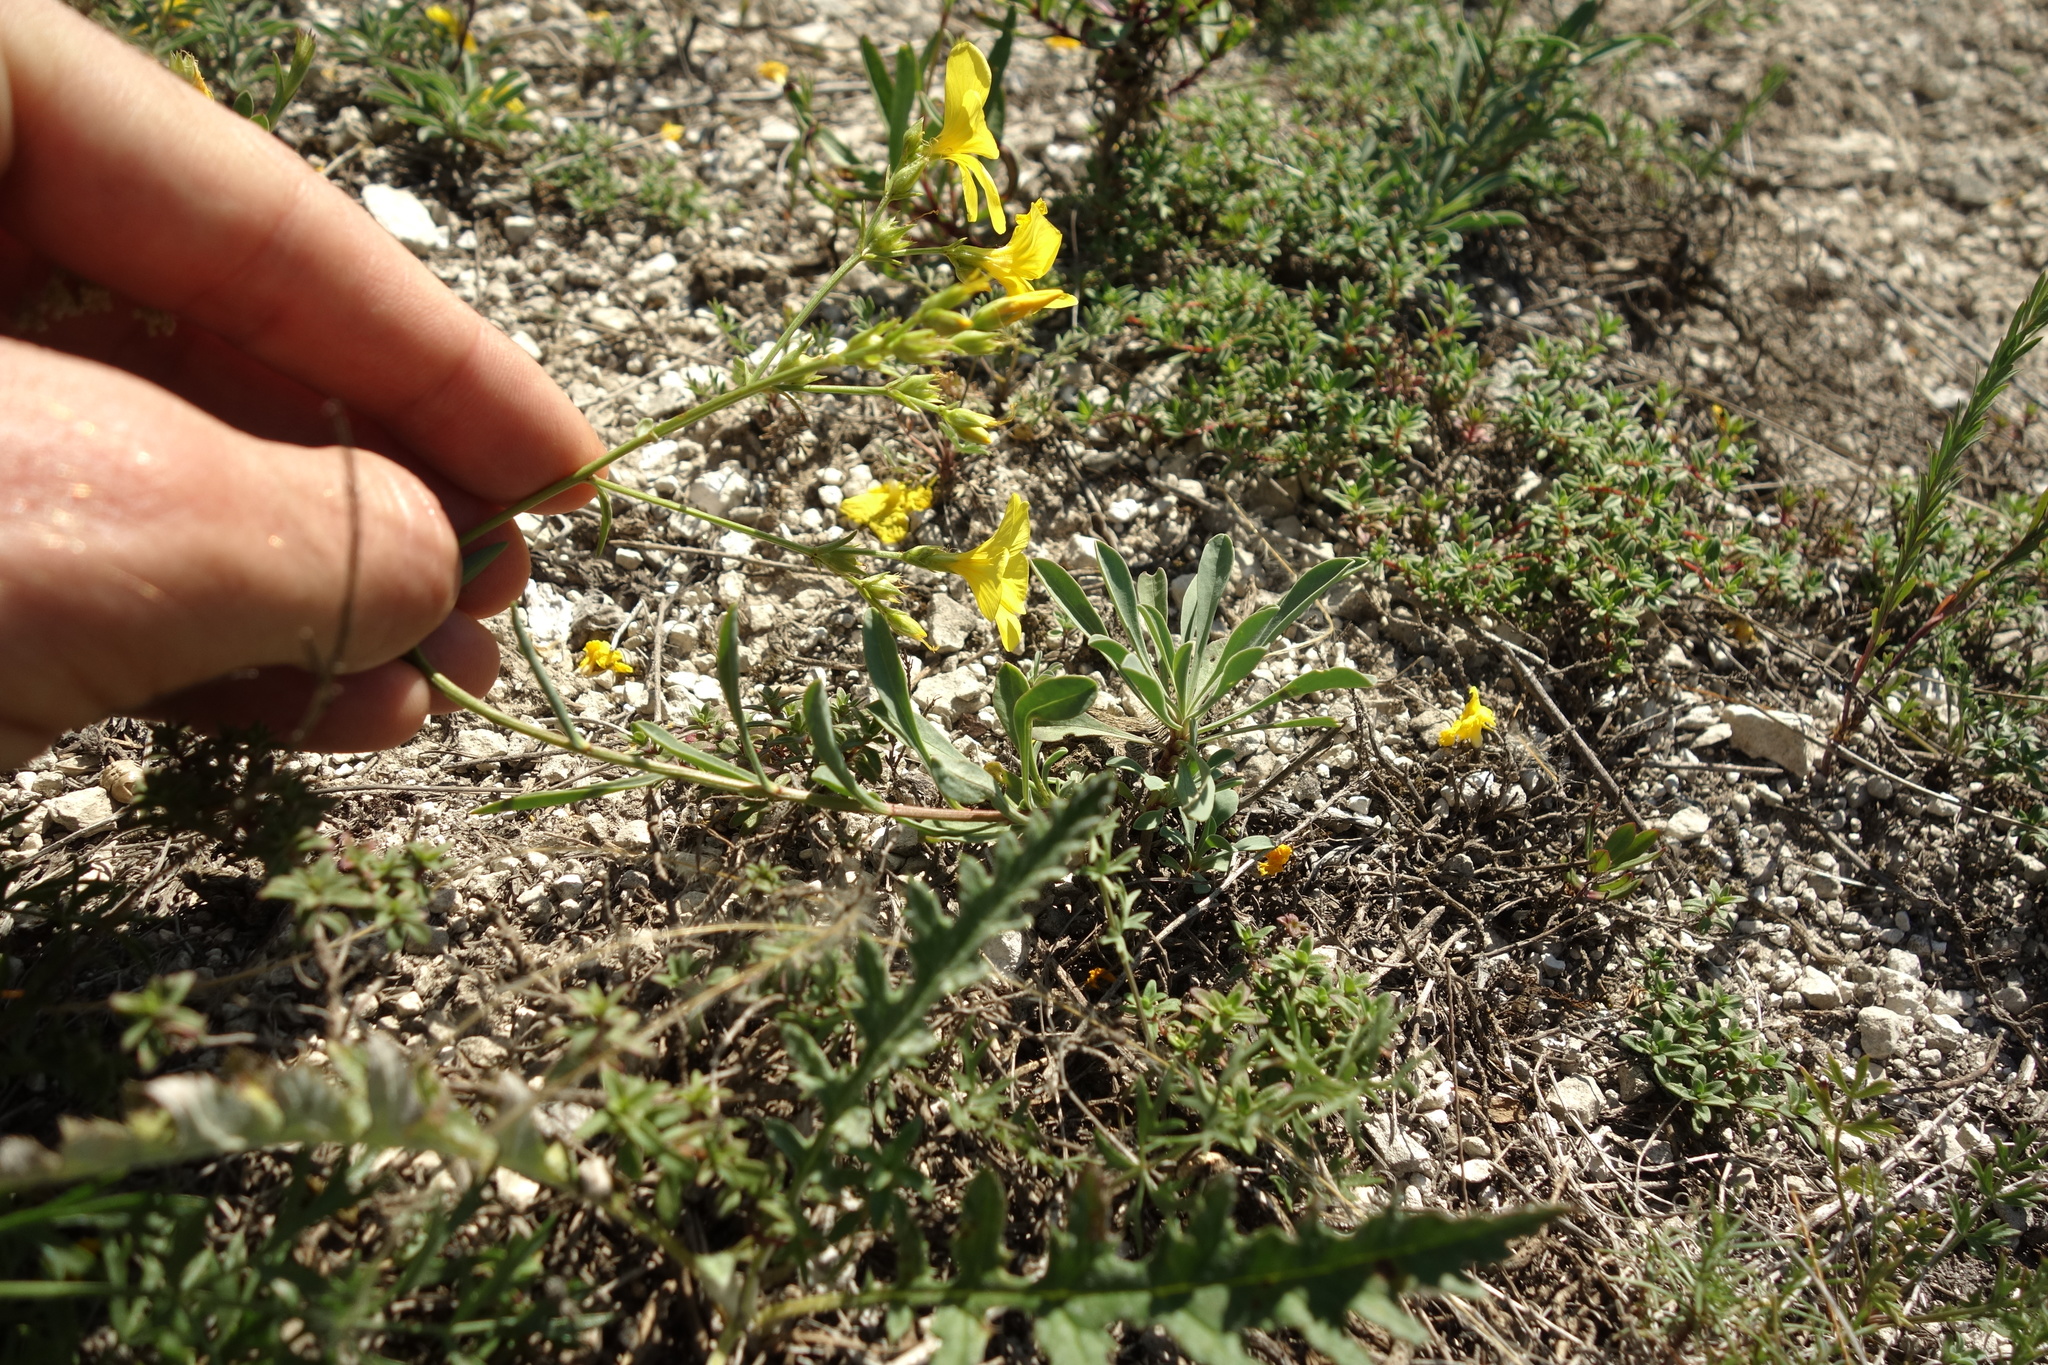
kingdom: Plantae
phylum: Tracheophyta
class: Magnoliopsida
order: Malpighiales
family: Linaceae
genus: Linum
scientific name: Linum ucranicum
